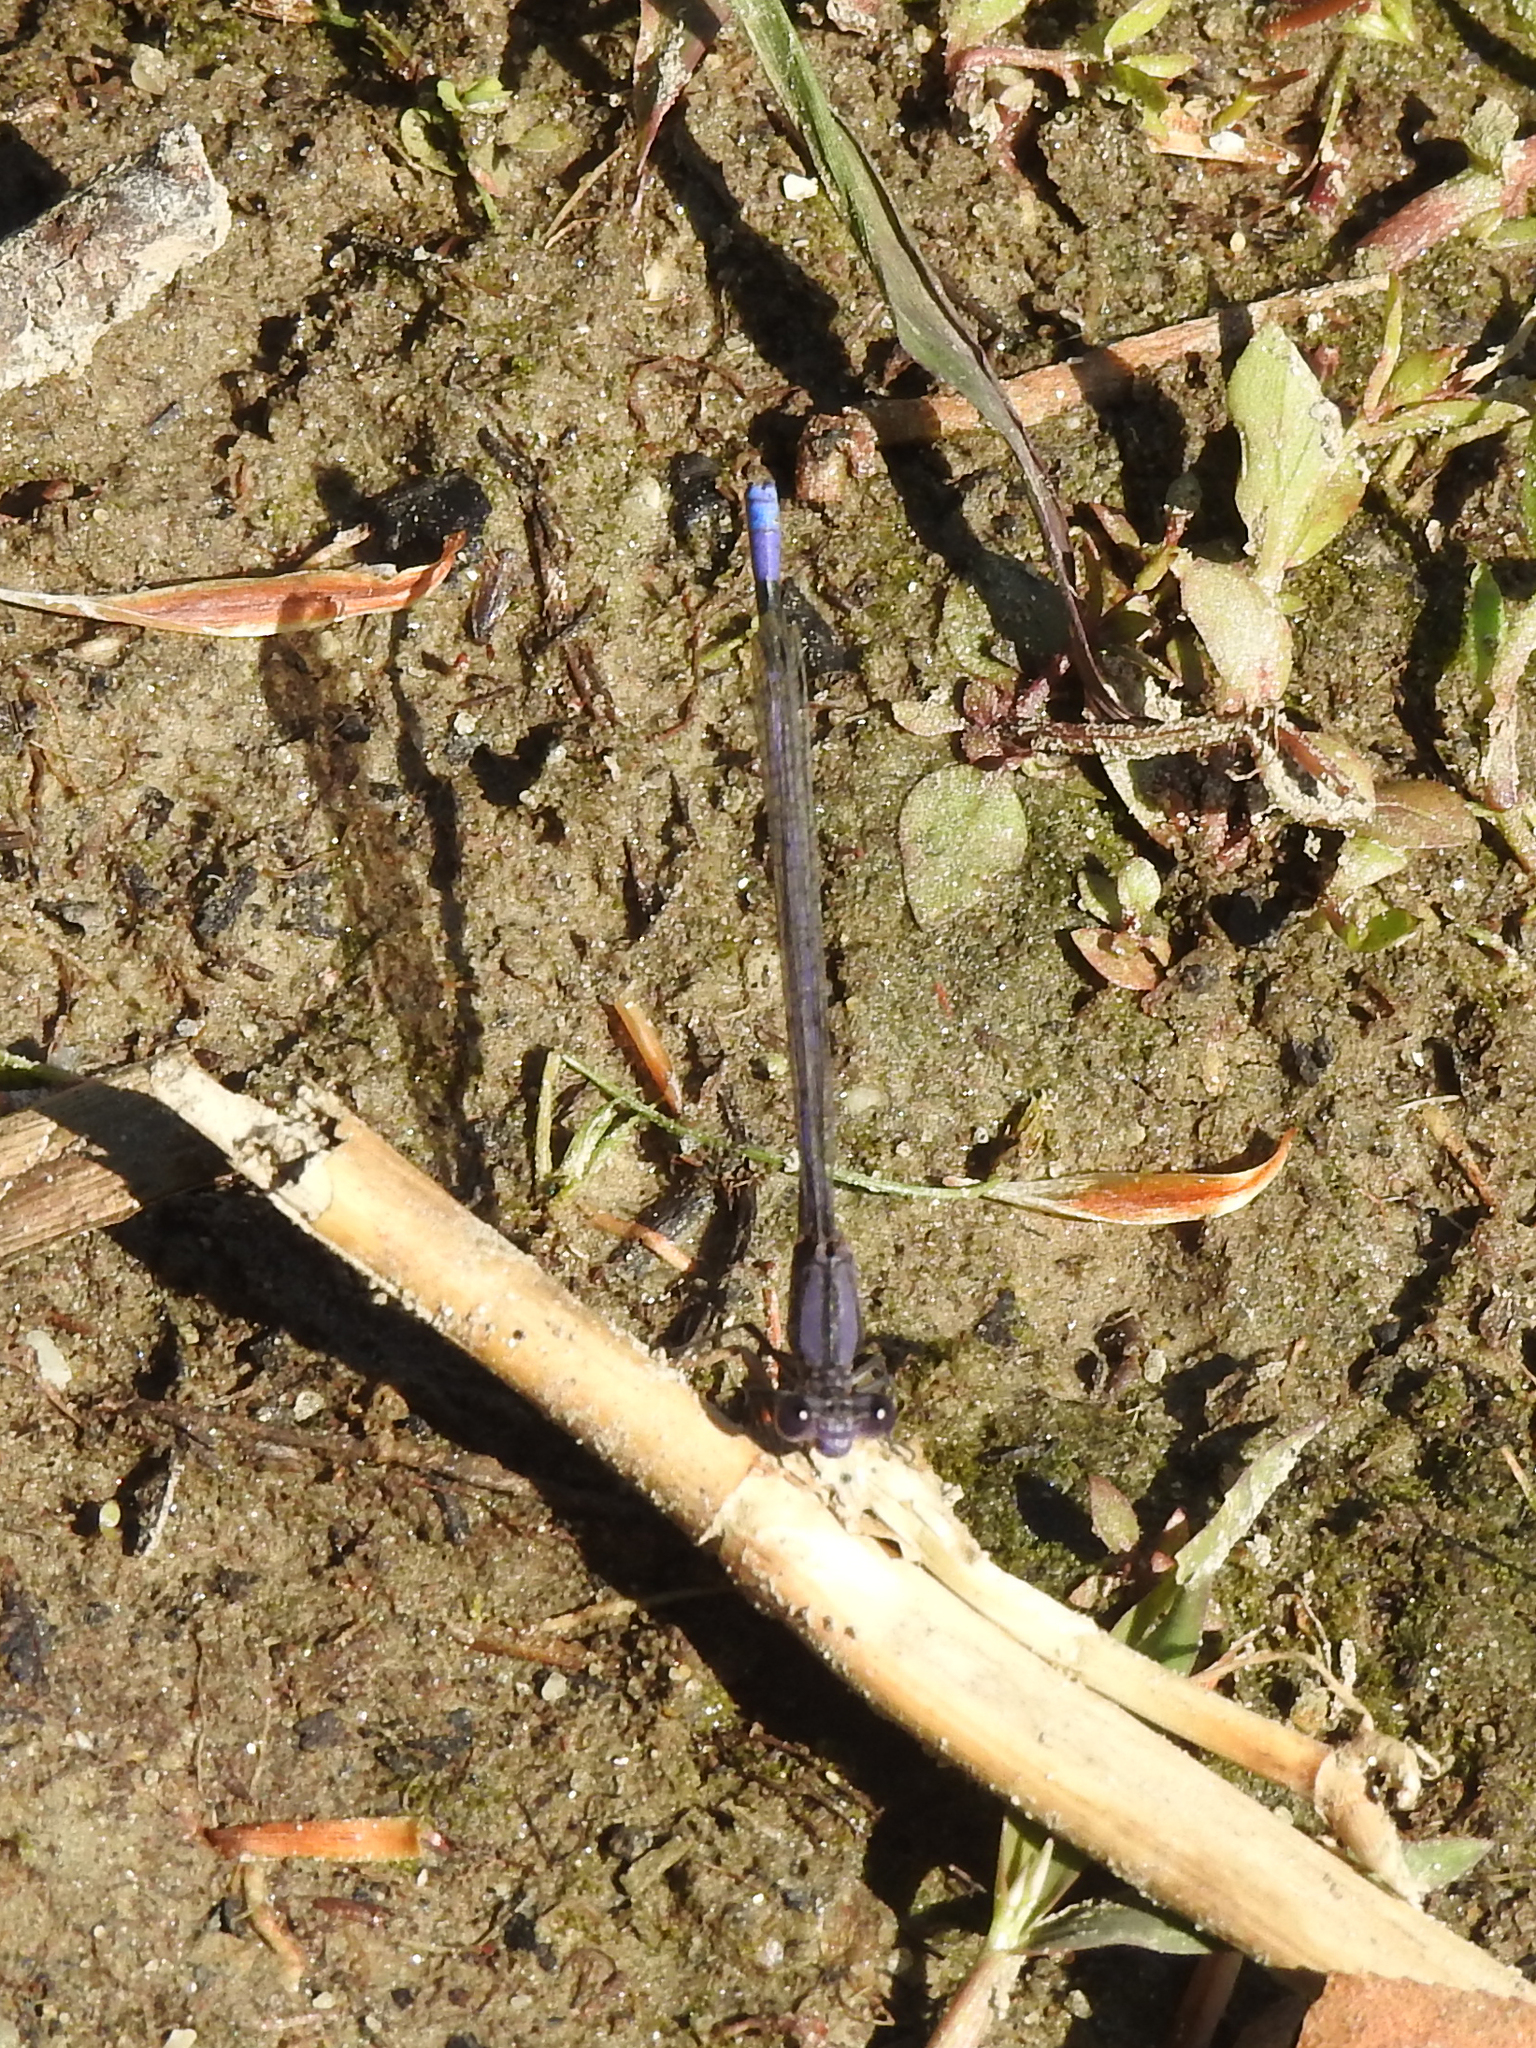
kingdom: Animalia
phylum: Arthropoda
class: Insecta
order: Odonata
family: Coenagrionidae
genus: Argia
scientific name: Argia fumipennis
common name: Variable dancer
